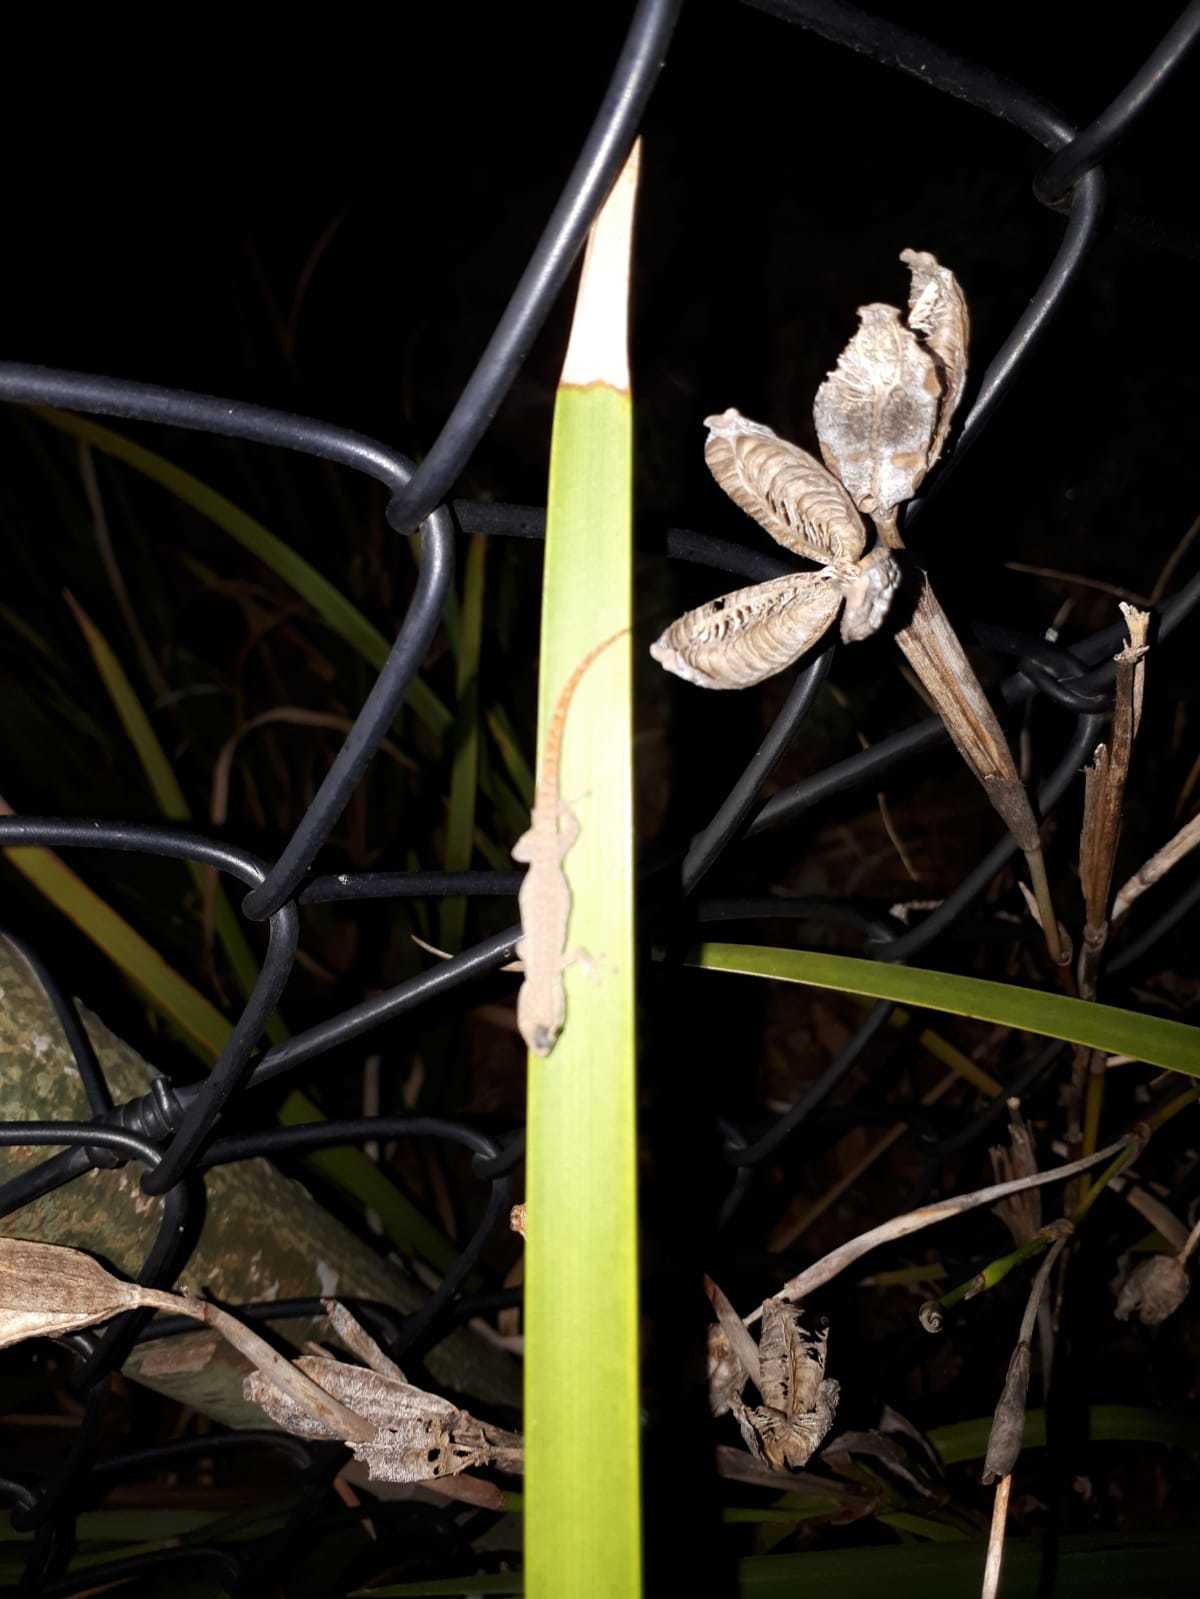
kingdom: Animalia
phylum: Chordata
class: Squamata
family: Gekkonidae
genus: Lygodactylus
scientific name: Lygodactylus capensis
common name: Cape dwarf gecko
